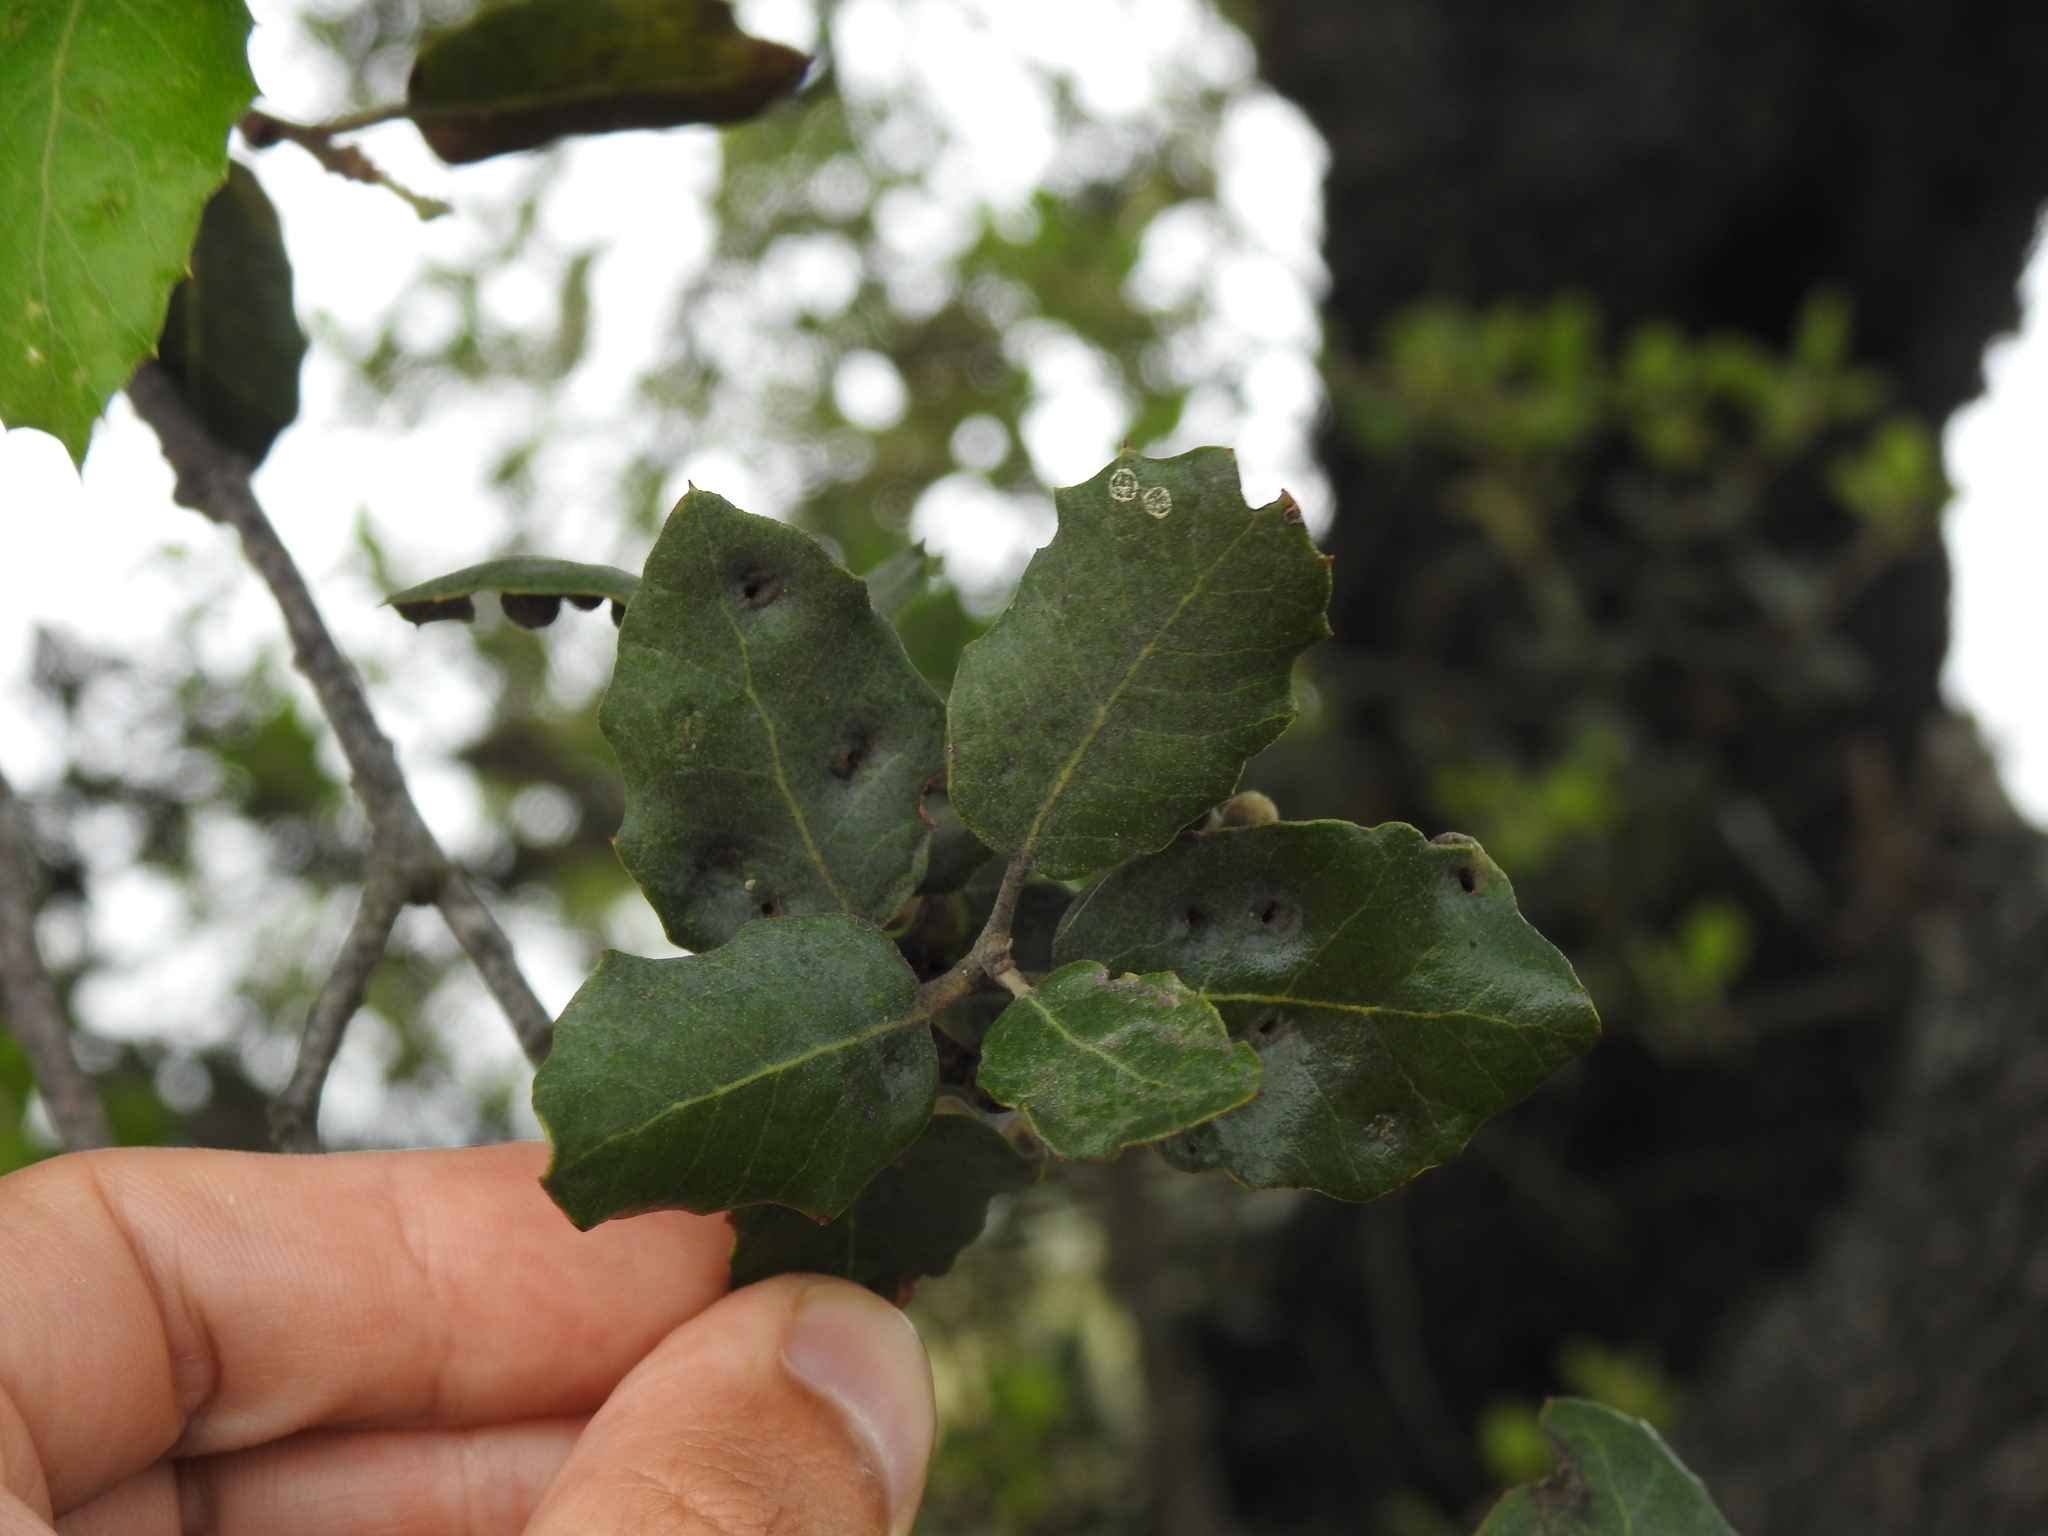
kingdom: Animalia
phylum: Arthropoda
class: Insecta
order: Diptera
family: Cecidomyiidae
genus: Dryomyia
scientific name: Dryomyia lichtensteinii
